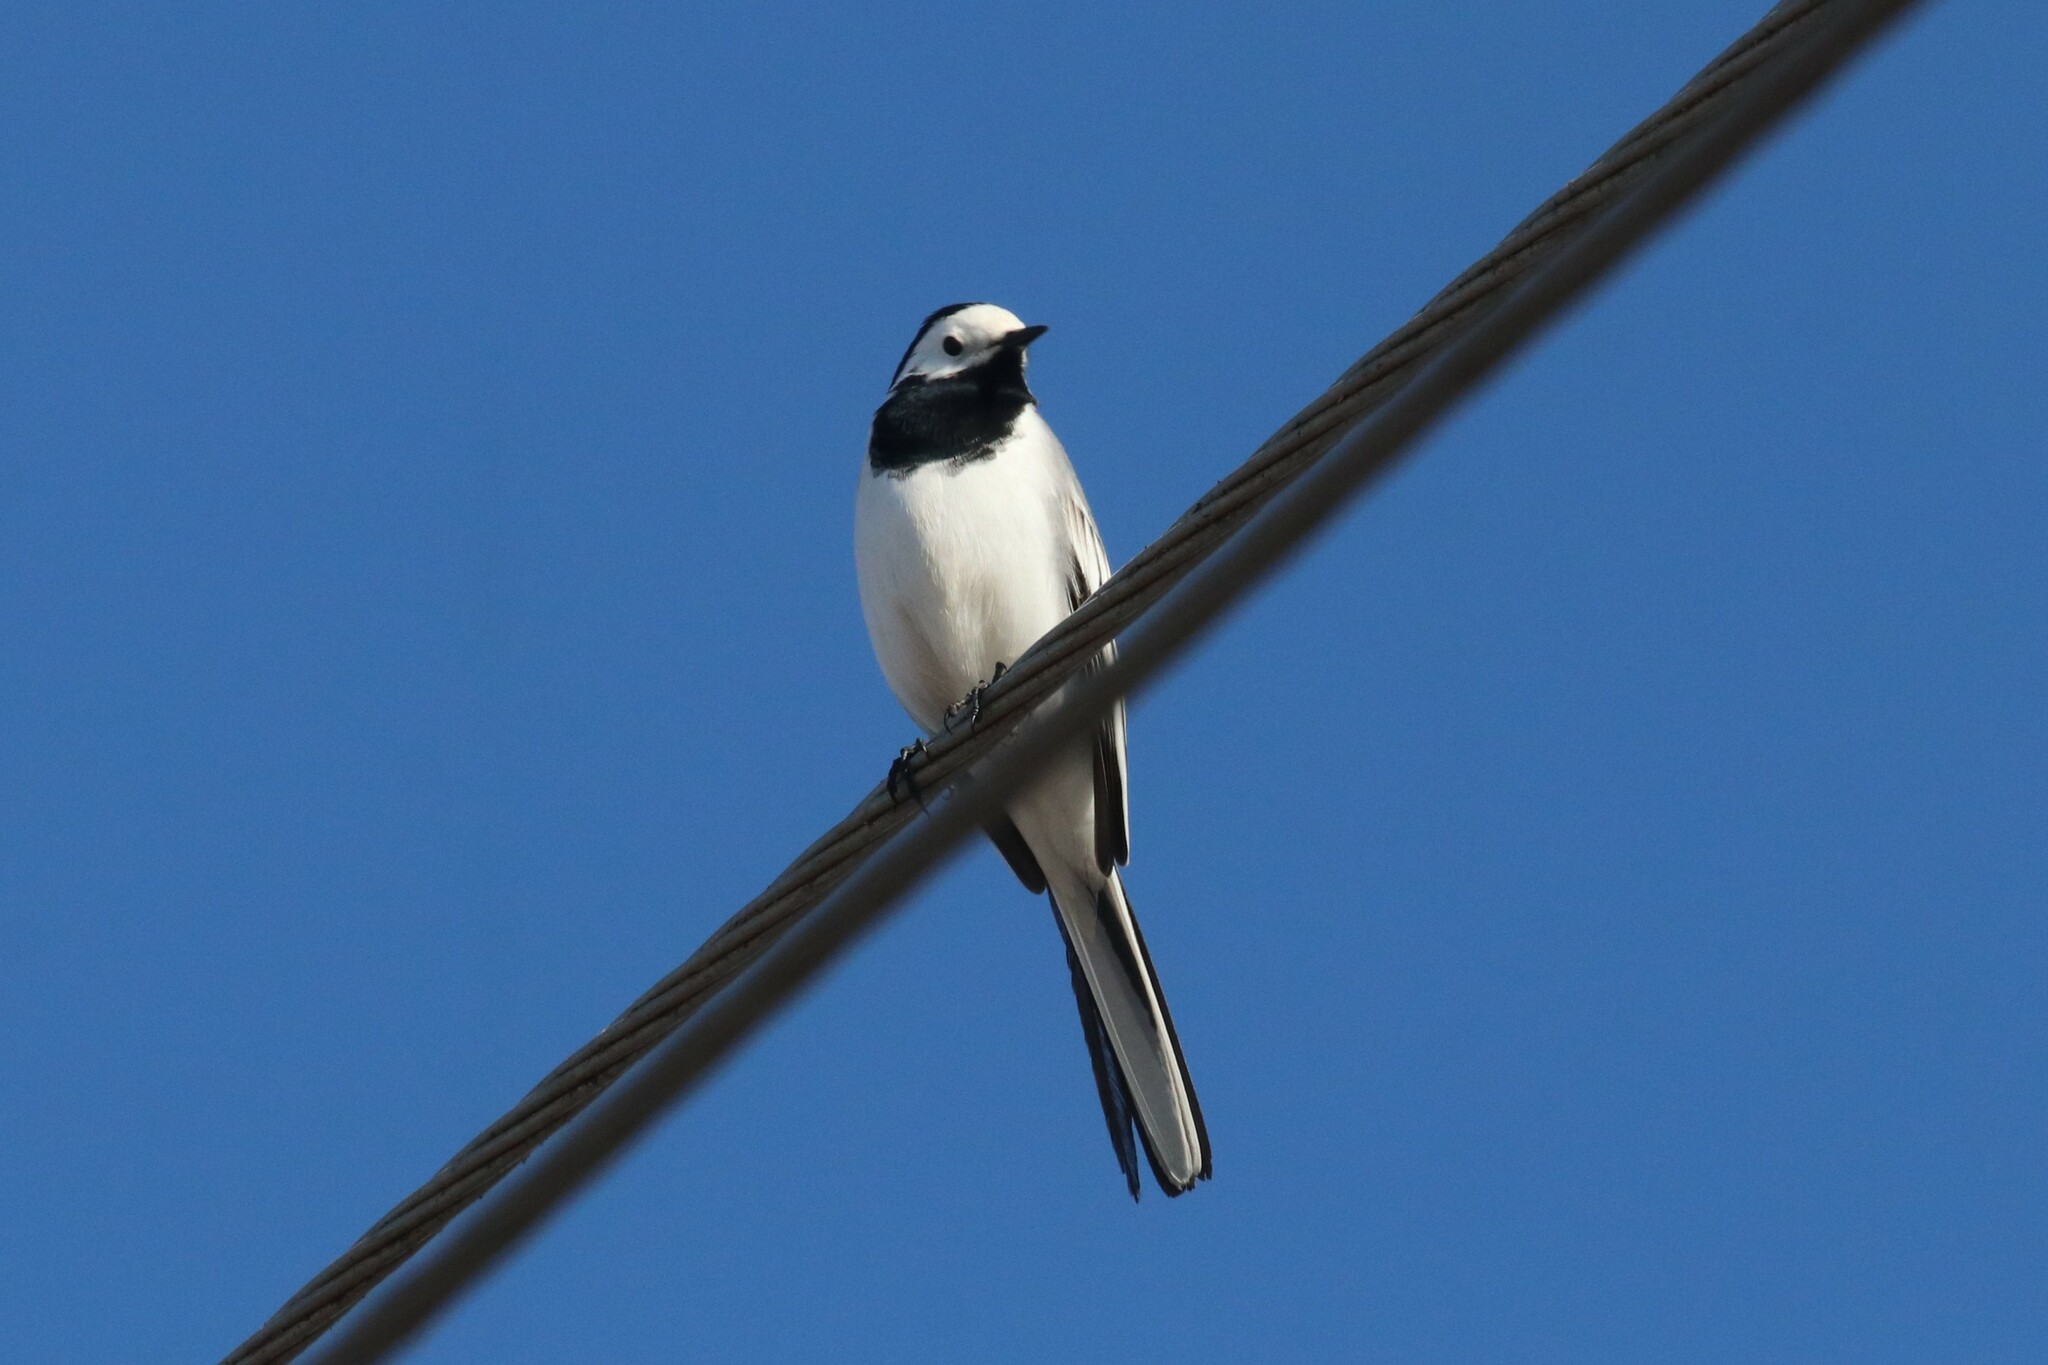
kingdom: Animalia
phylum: Chordata
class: Aves
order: Passeriformes
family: Motacillidae
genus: Motacilla
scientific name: Motacilla alba
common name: White wagtail
